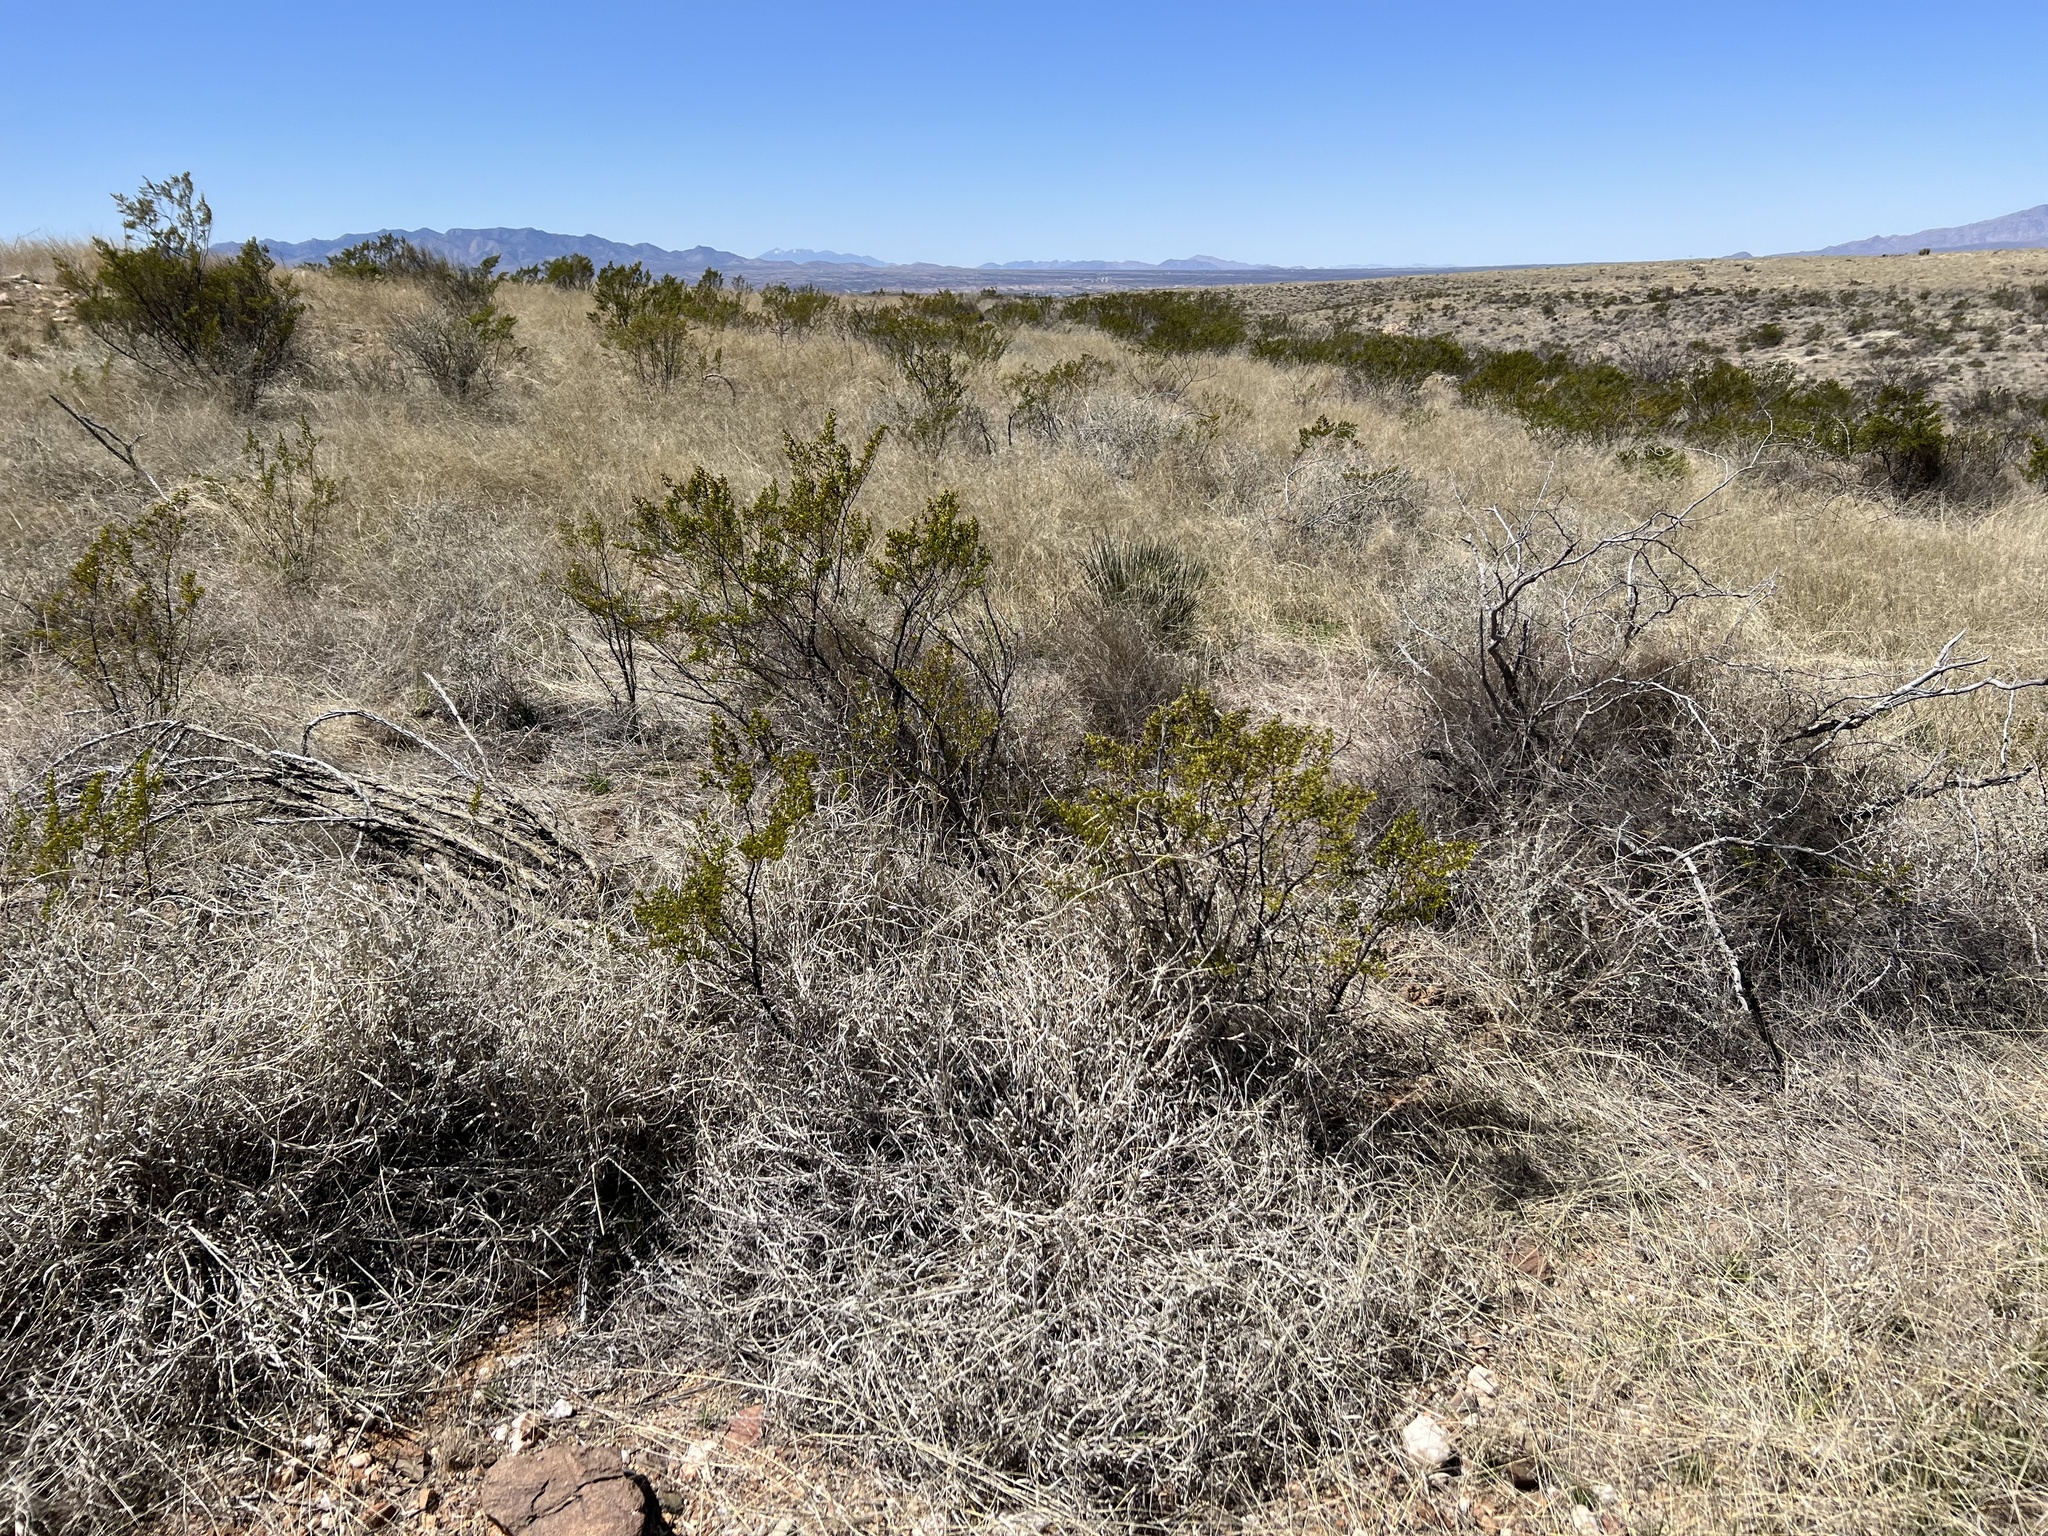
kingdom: Plantae
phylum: Tracheophyta
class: Magnoliopsida
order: Zygophyllales
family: Zygophyllaceae
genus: Larrea
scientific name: Larrea tridentata
